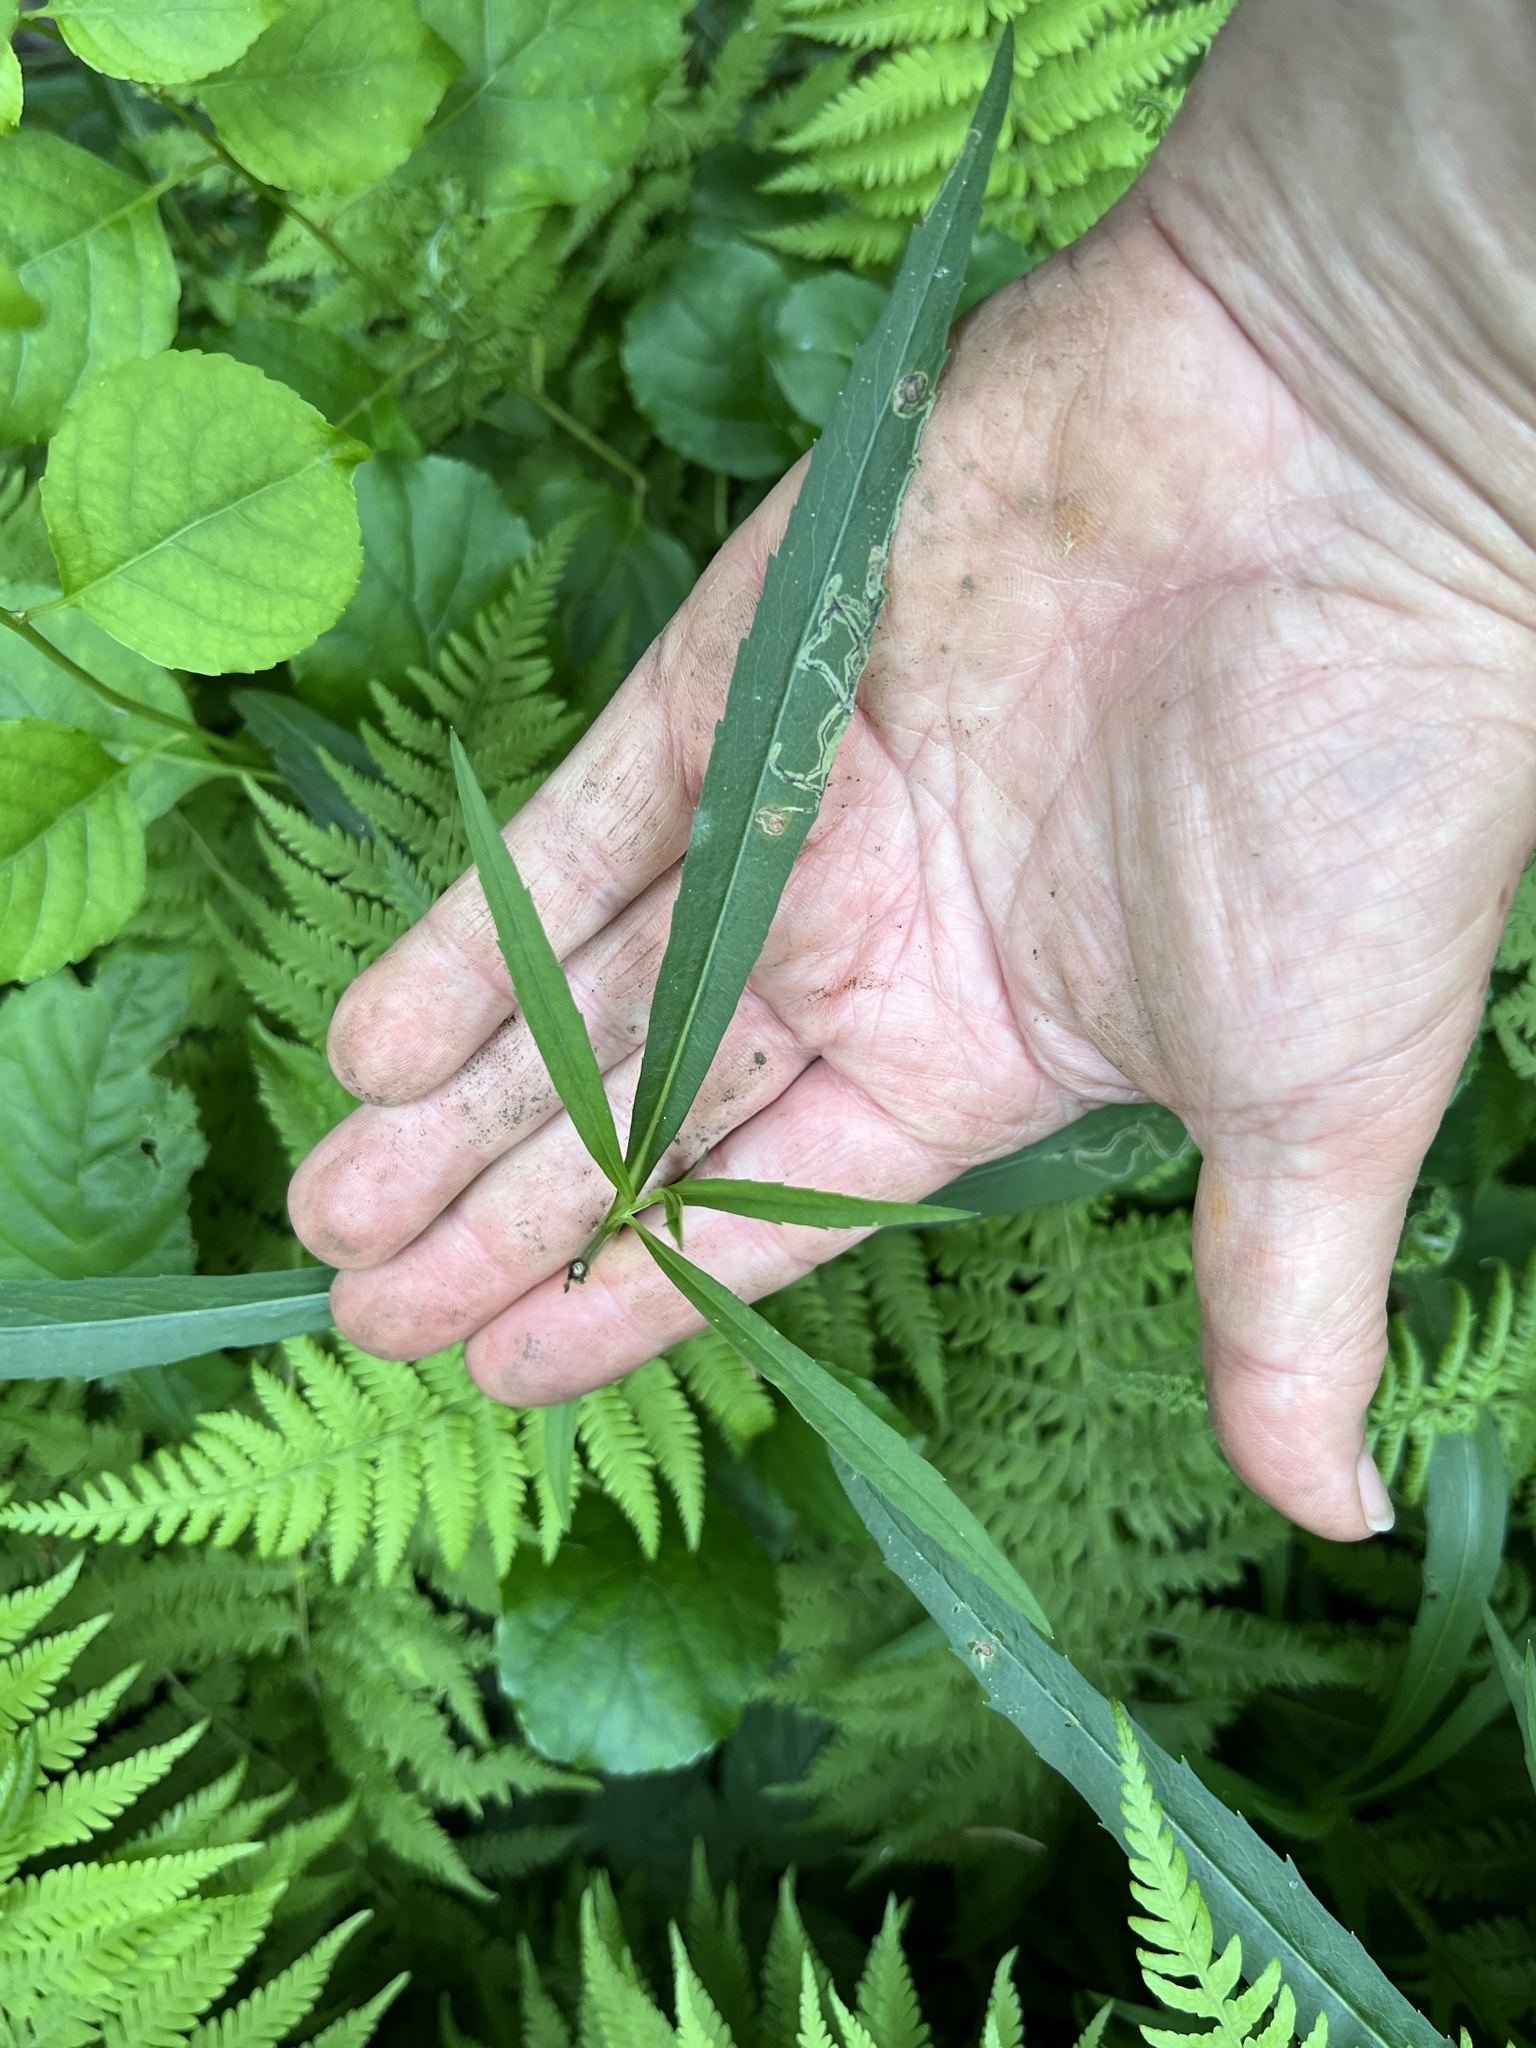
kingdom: Animalia
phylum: Arthropoda
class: Insecta
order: Diptera
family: Agromyzidae
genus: Liriomyza
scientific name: Liriomyza eupatorii
